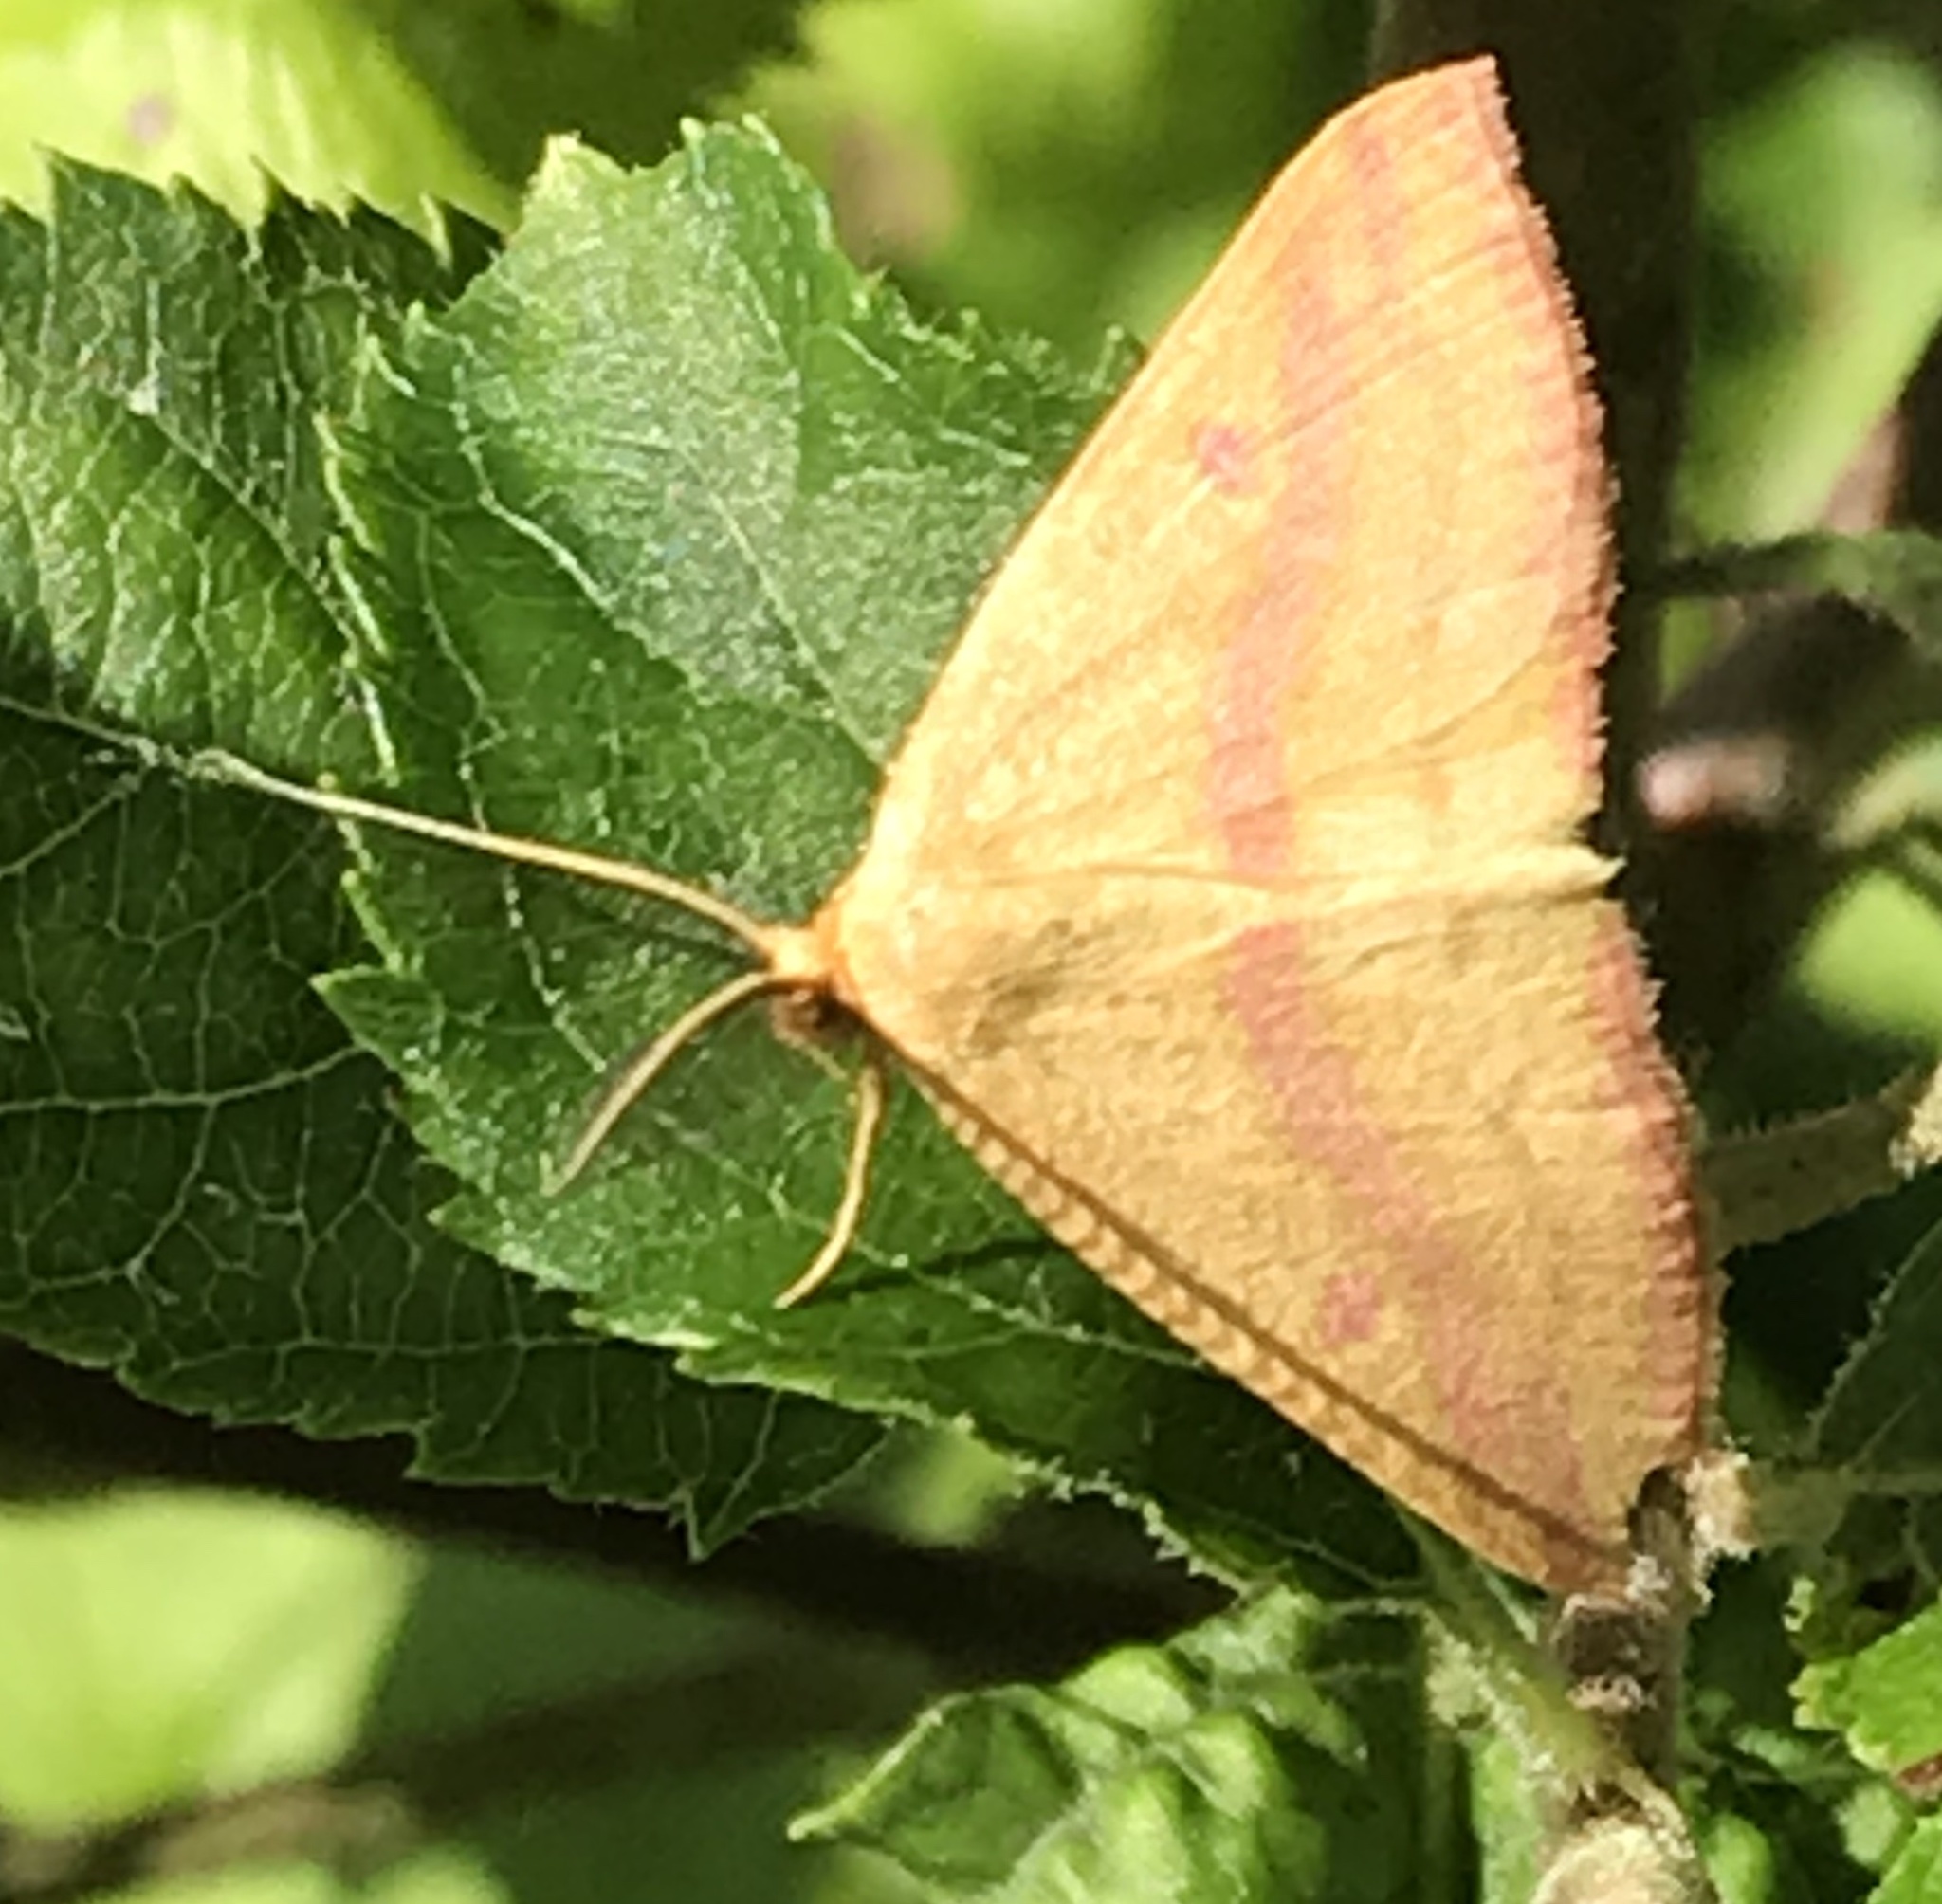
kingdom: Animalia
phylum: Arthropoda
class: Insecta
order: Lepidoptera
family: Geometridae
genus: Haematopis
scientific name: Haematopis grataria
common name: Chickweed geometer
